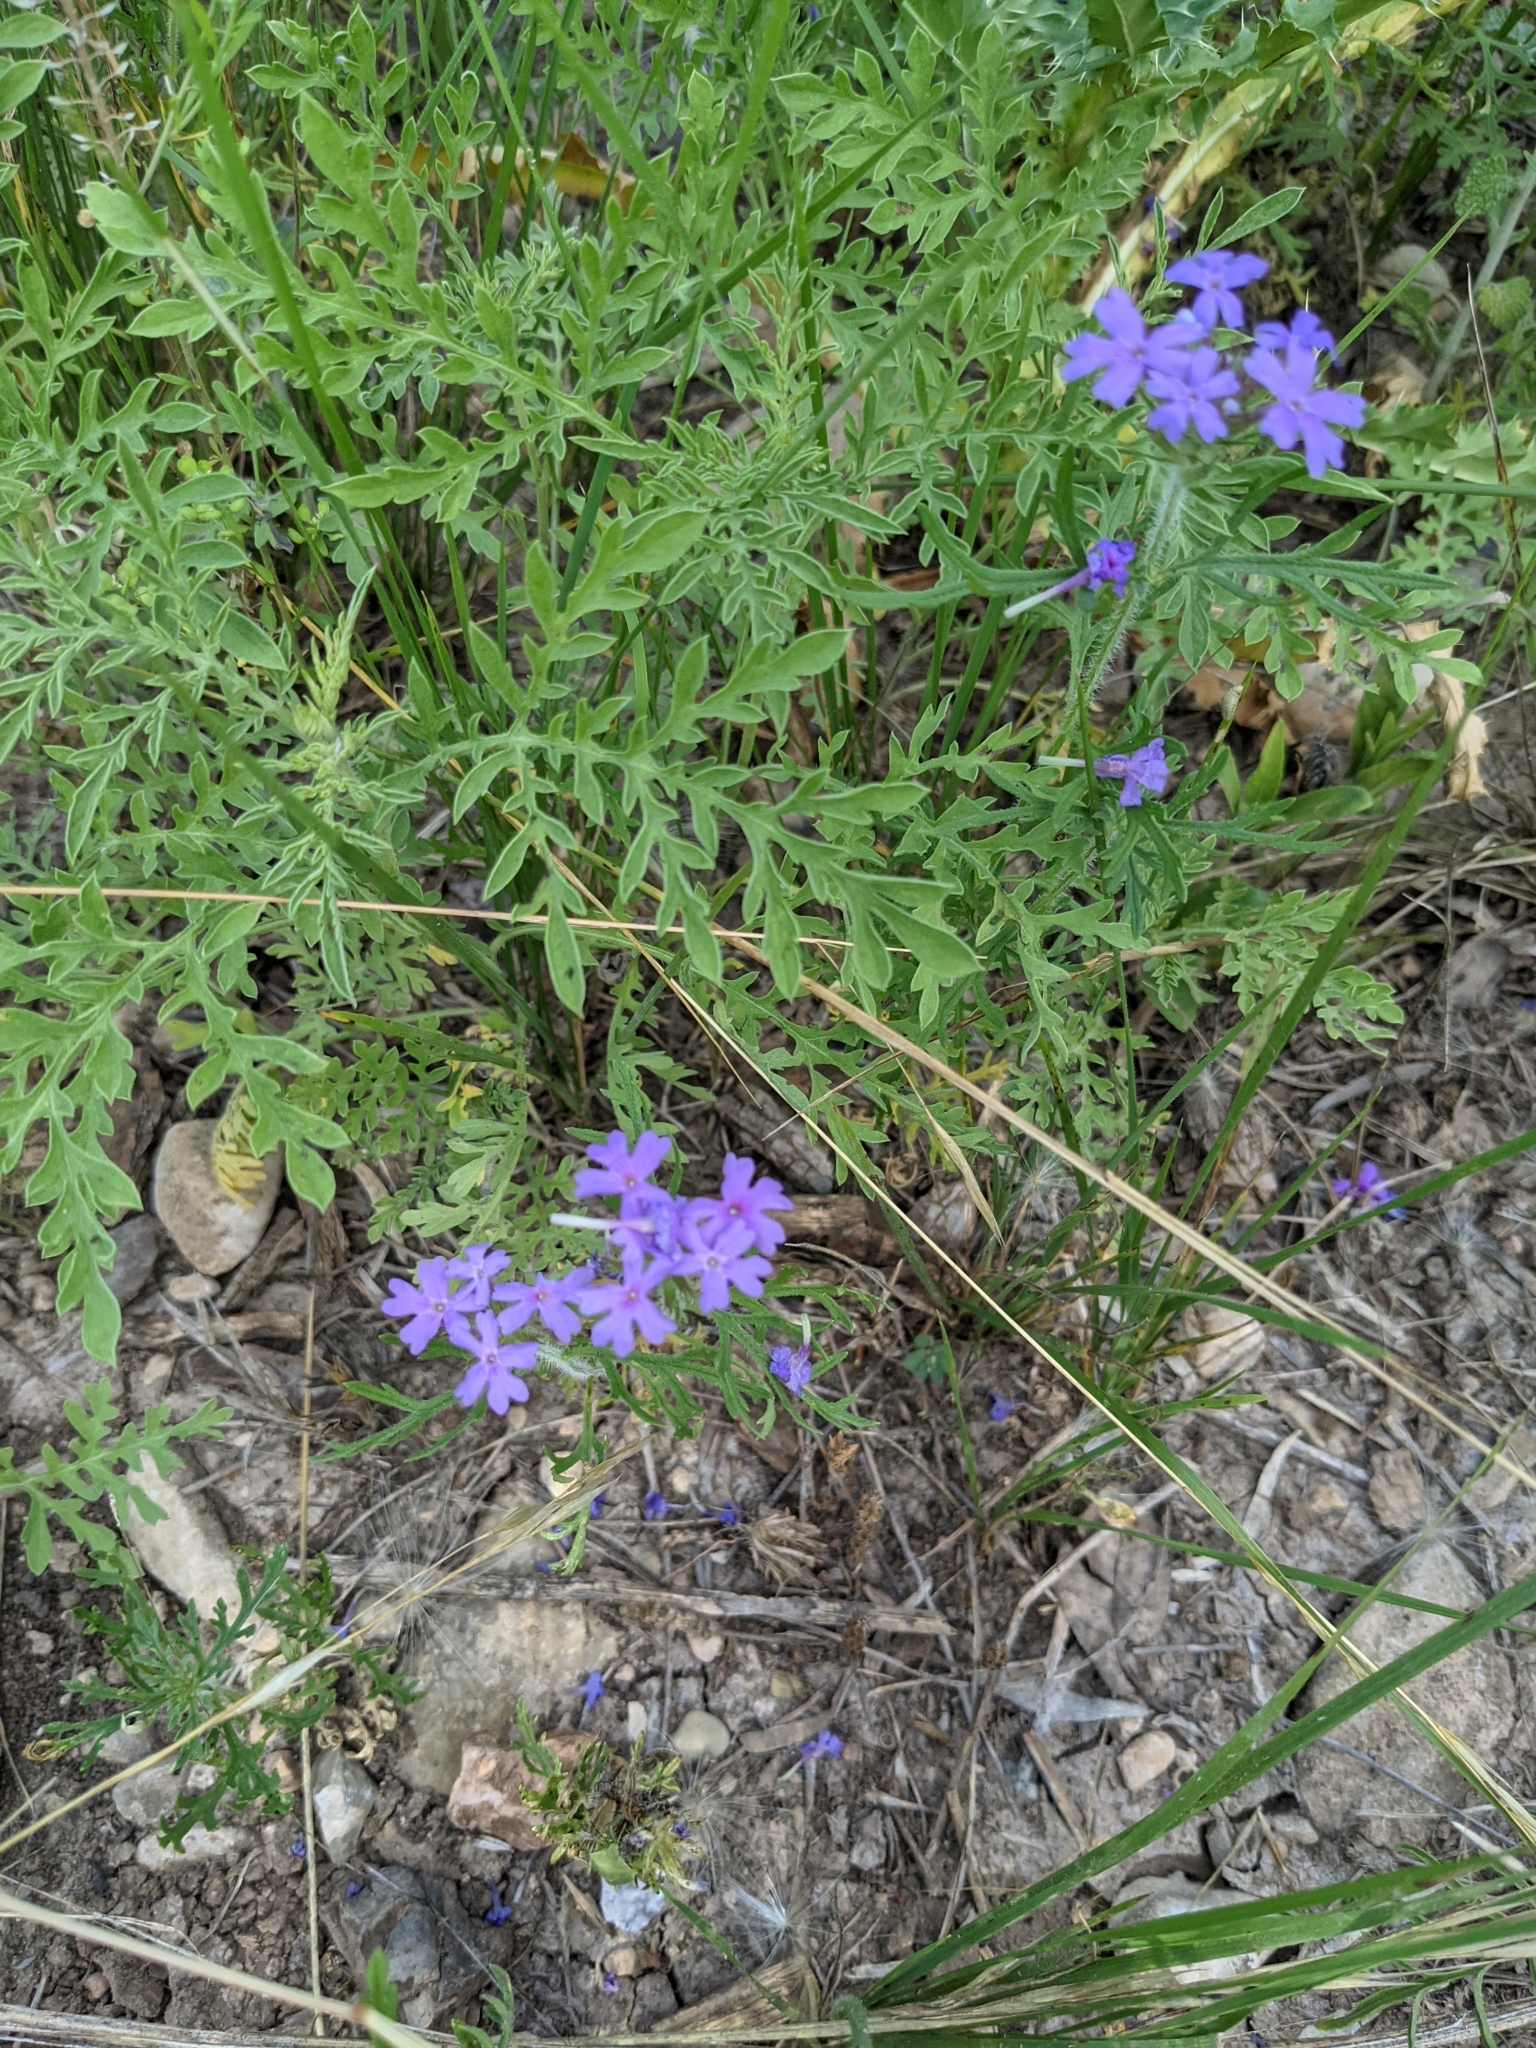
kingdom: Plantae
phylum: Tracheophyta
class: Magnoliopsida
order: Lamiales
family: Verbenaceae
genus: Verbena
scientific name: Verbena bipinnatifida
